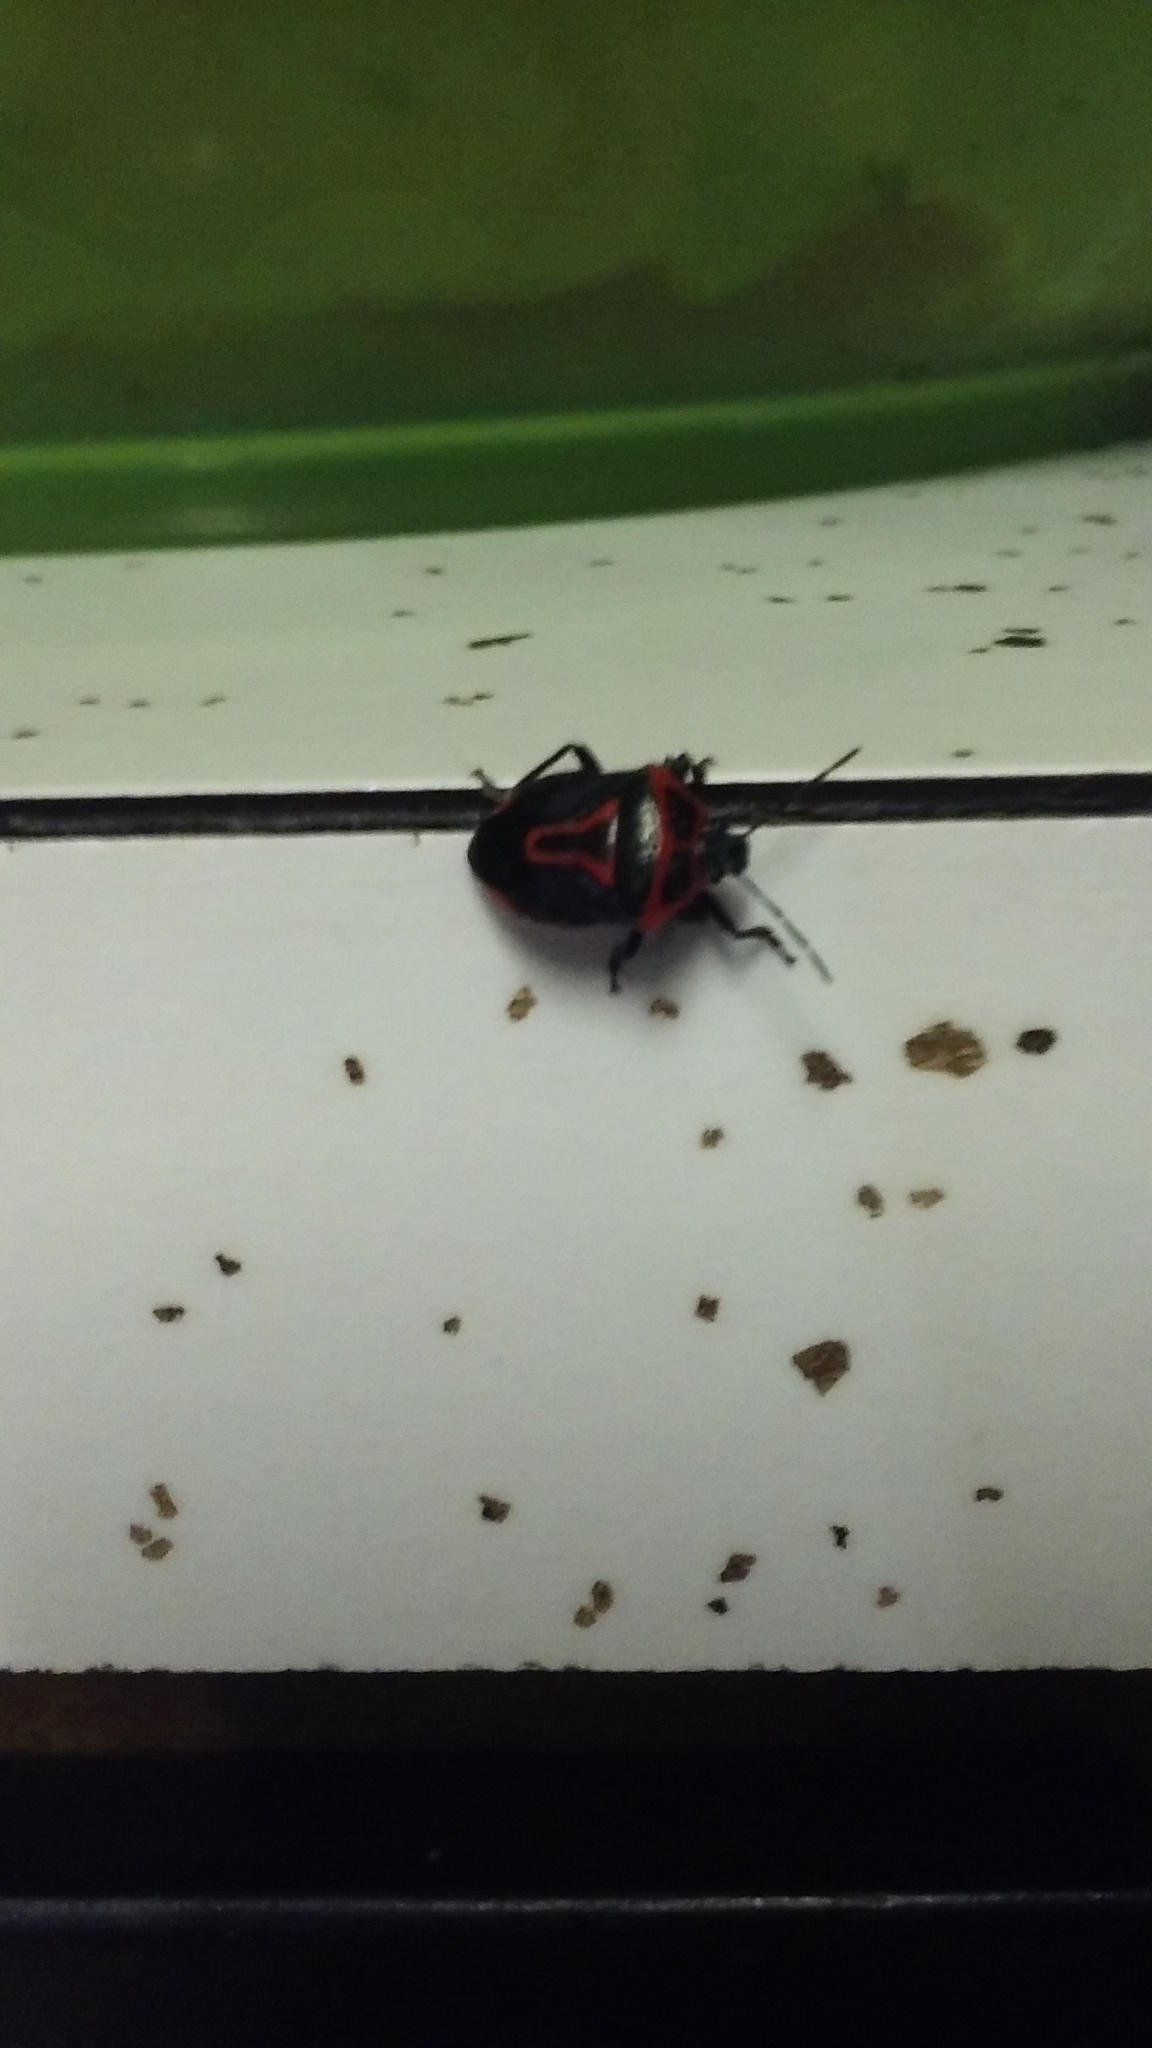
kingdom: Animalia
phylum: Arthropoda
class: Insecta
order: Hemiptera
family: Pentatomidae
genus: Perillus
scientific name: Perillus bioculatus
